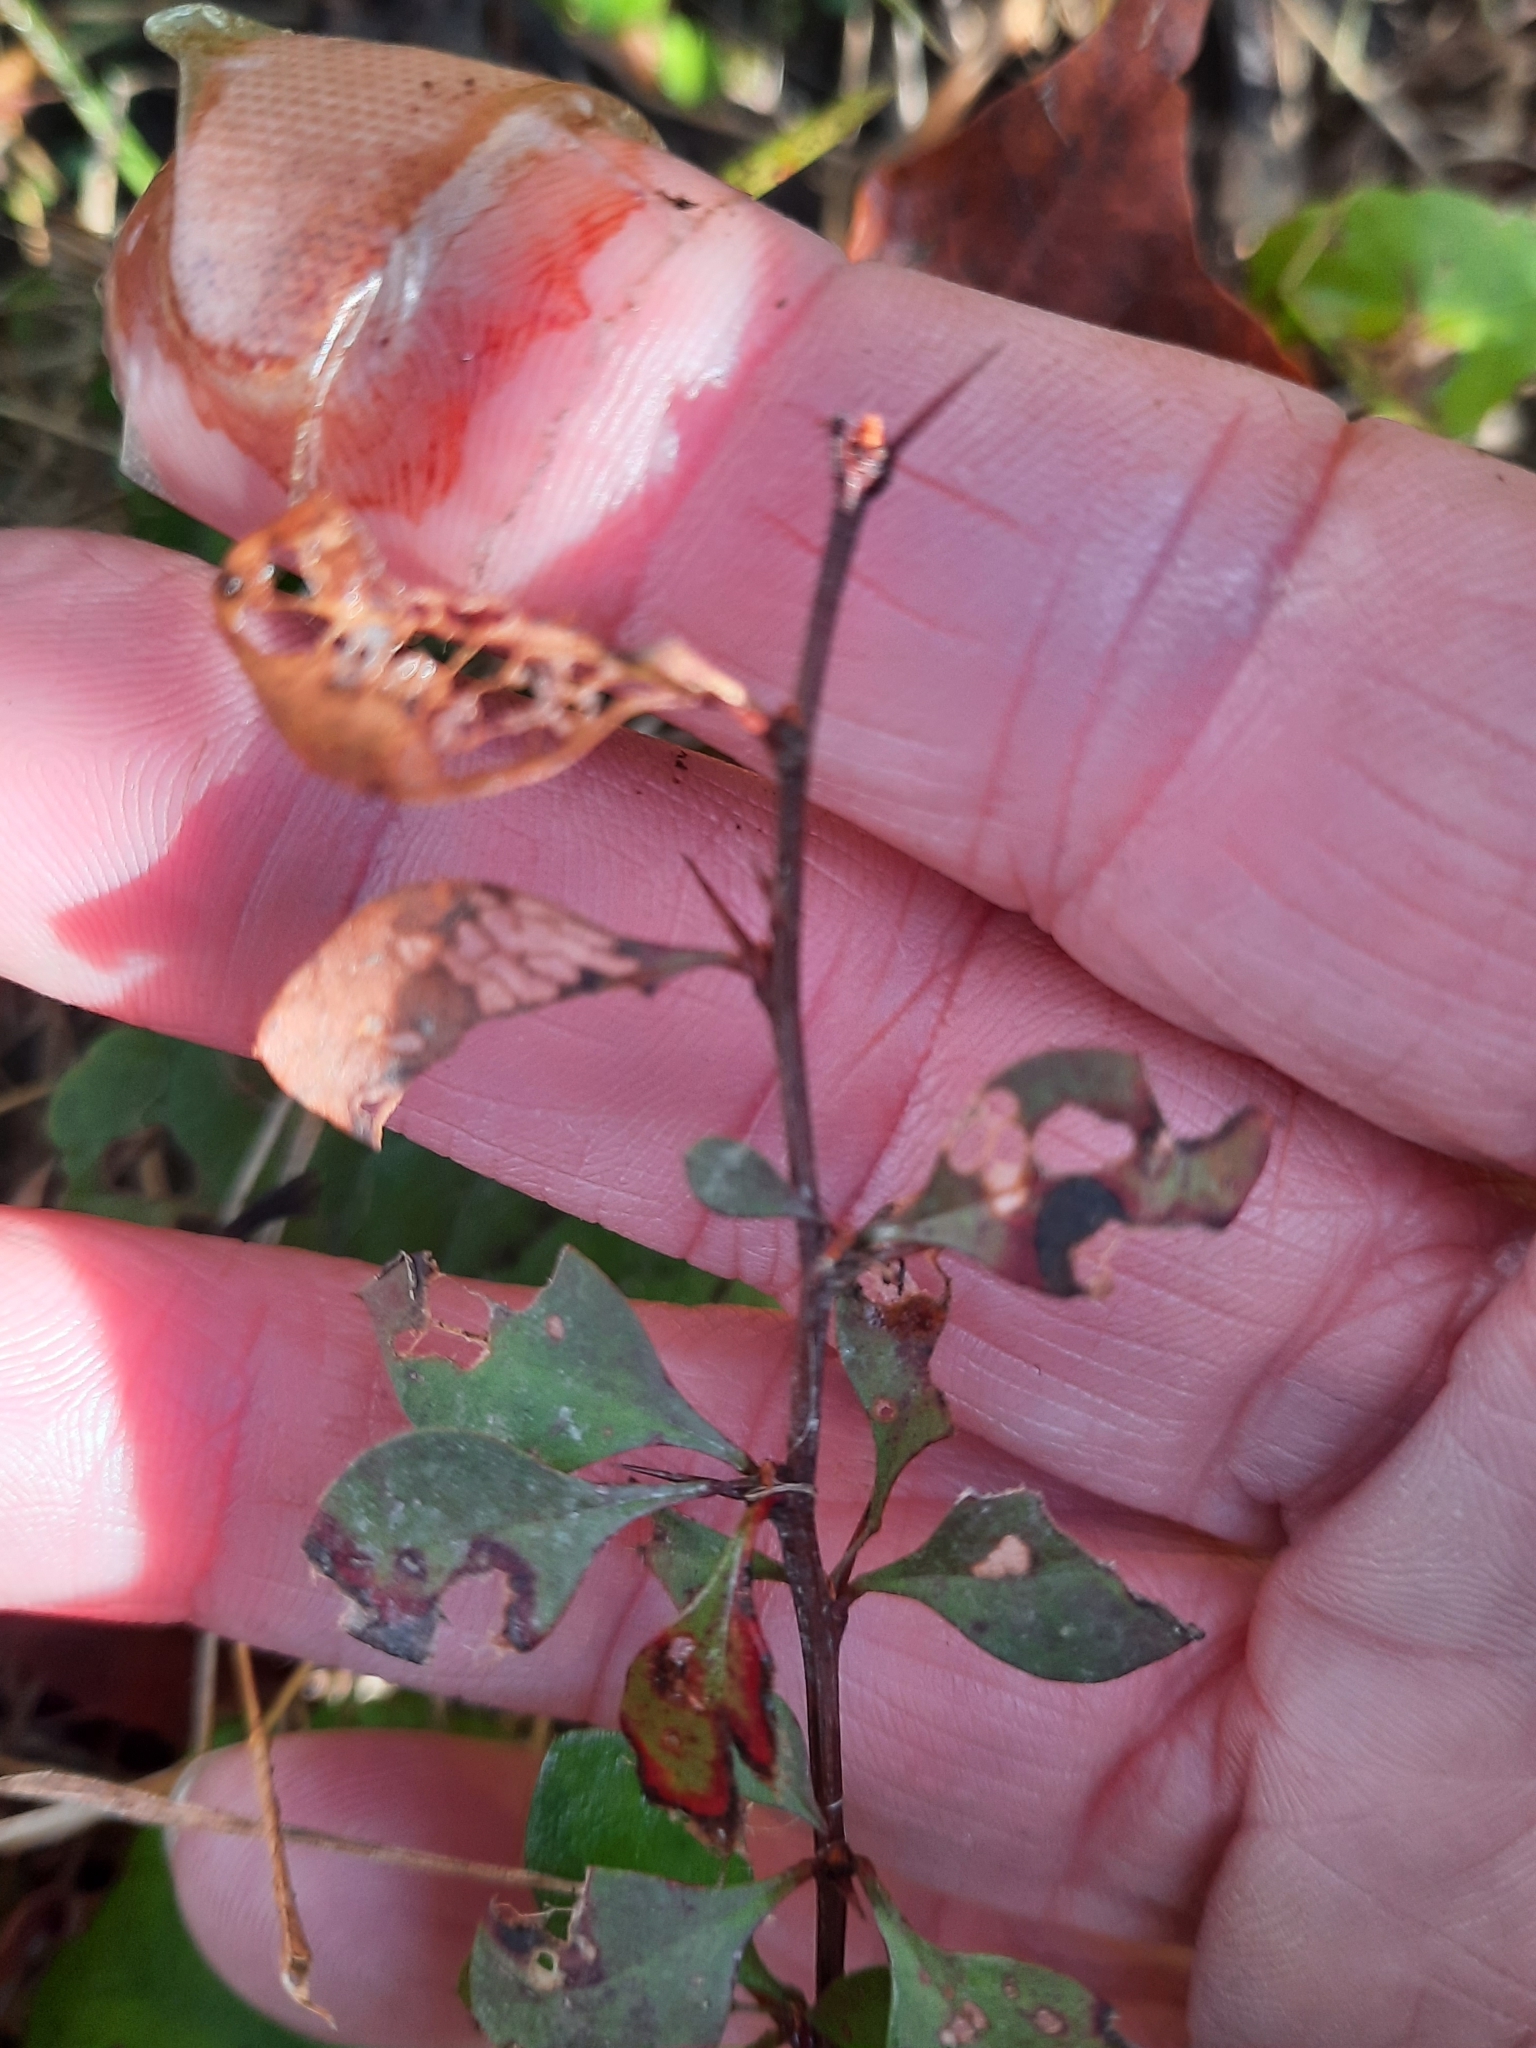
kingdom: Plantae
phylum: Tracheophyta
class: Magnoliopsida
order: Ranunculales
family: Berberidaceae
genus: Berberis
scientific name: Berberis thunbergii
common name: Japanese barberry
